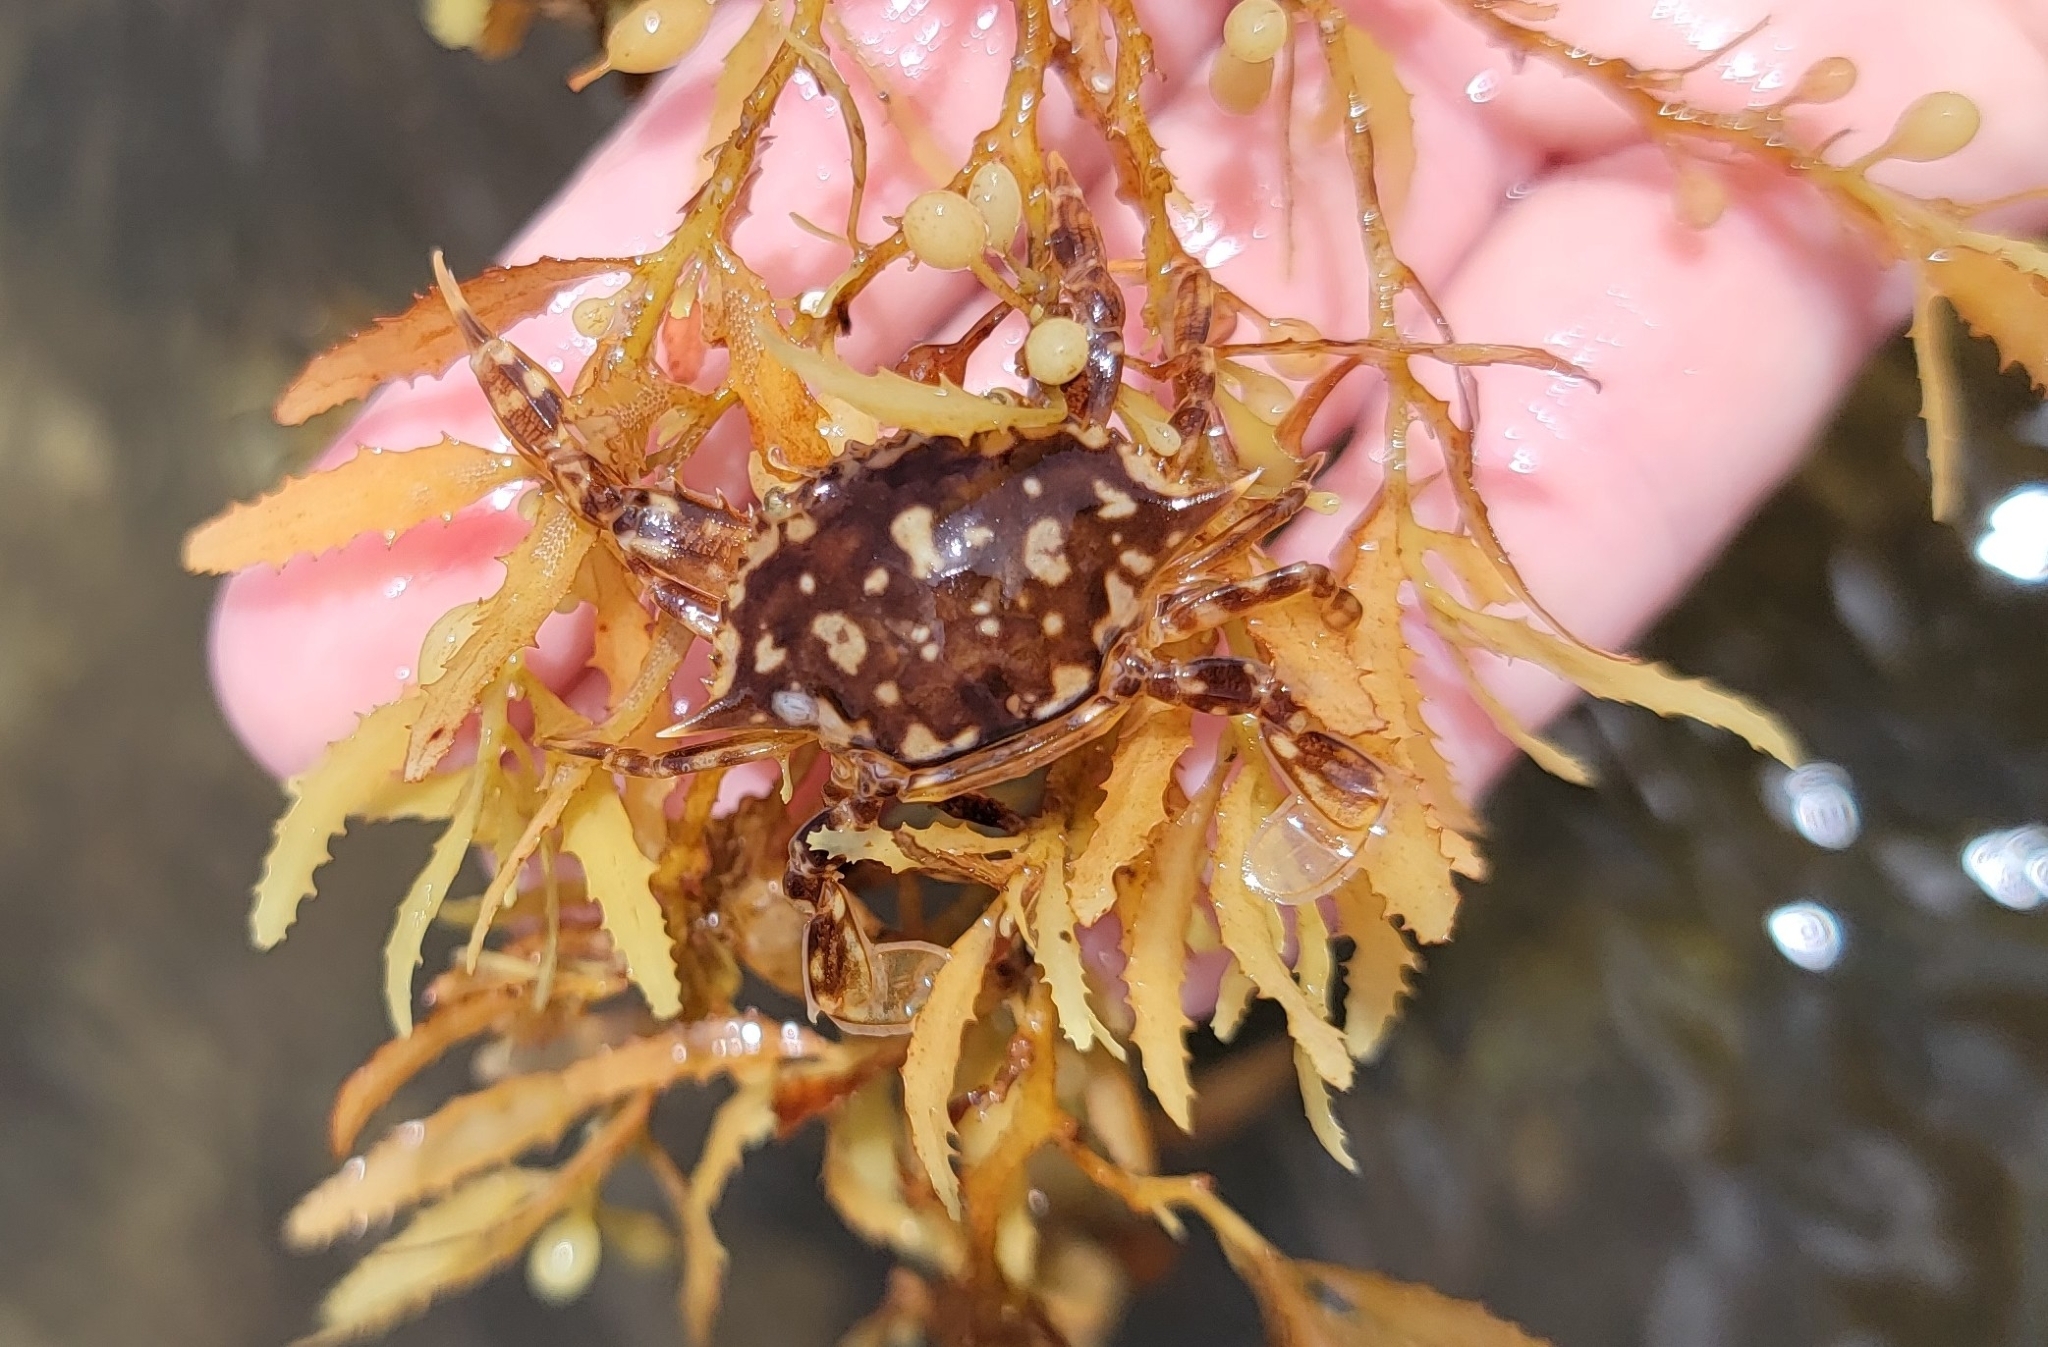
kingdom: Animalia
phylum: Arthropoda
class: Malacostraca
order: Decapoda
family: Portunidae
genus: Portunus
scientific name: Portunus sayi
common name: Sargassum crab
